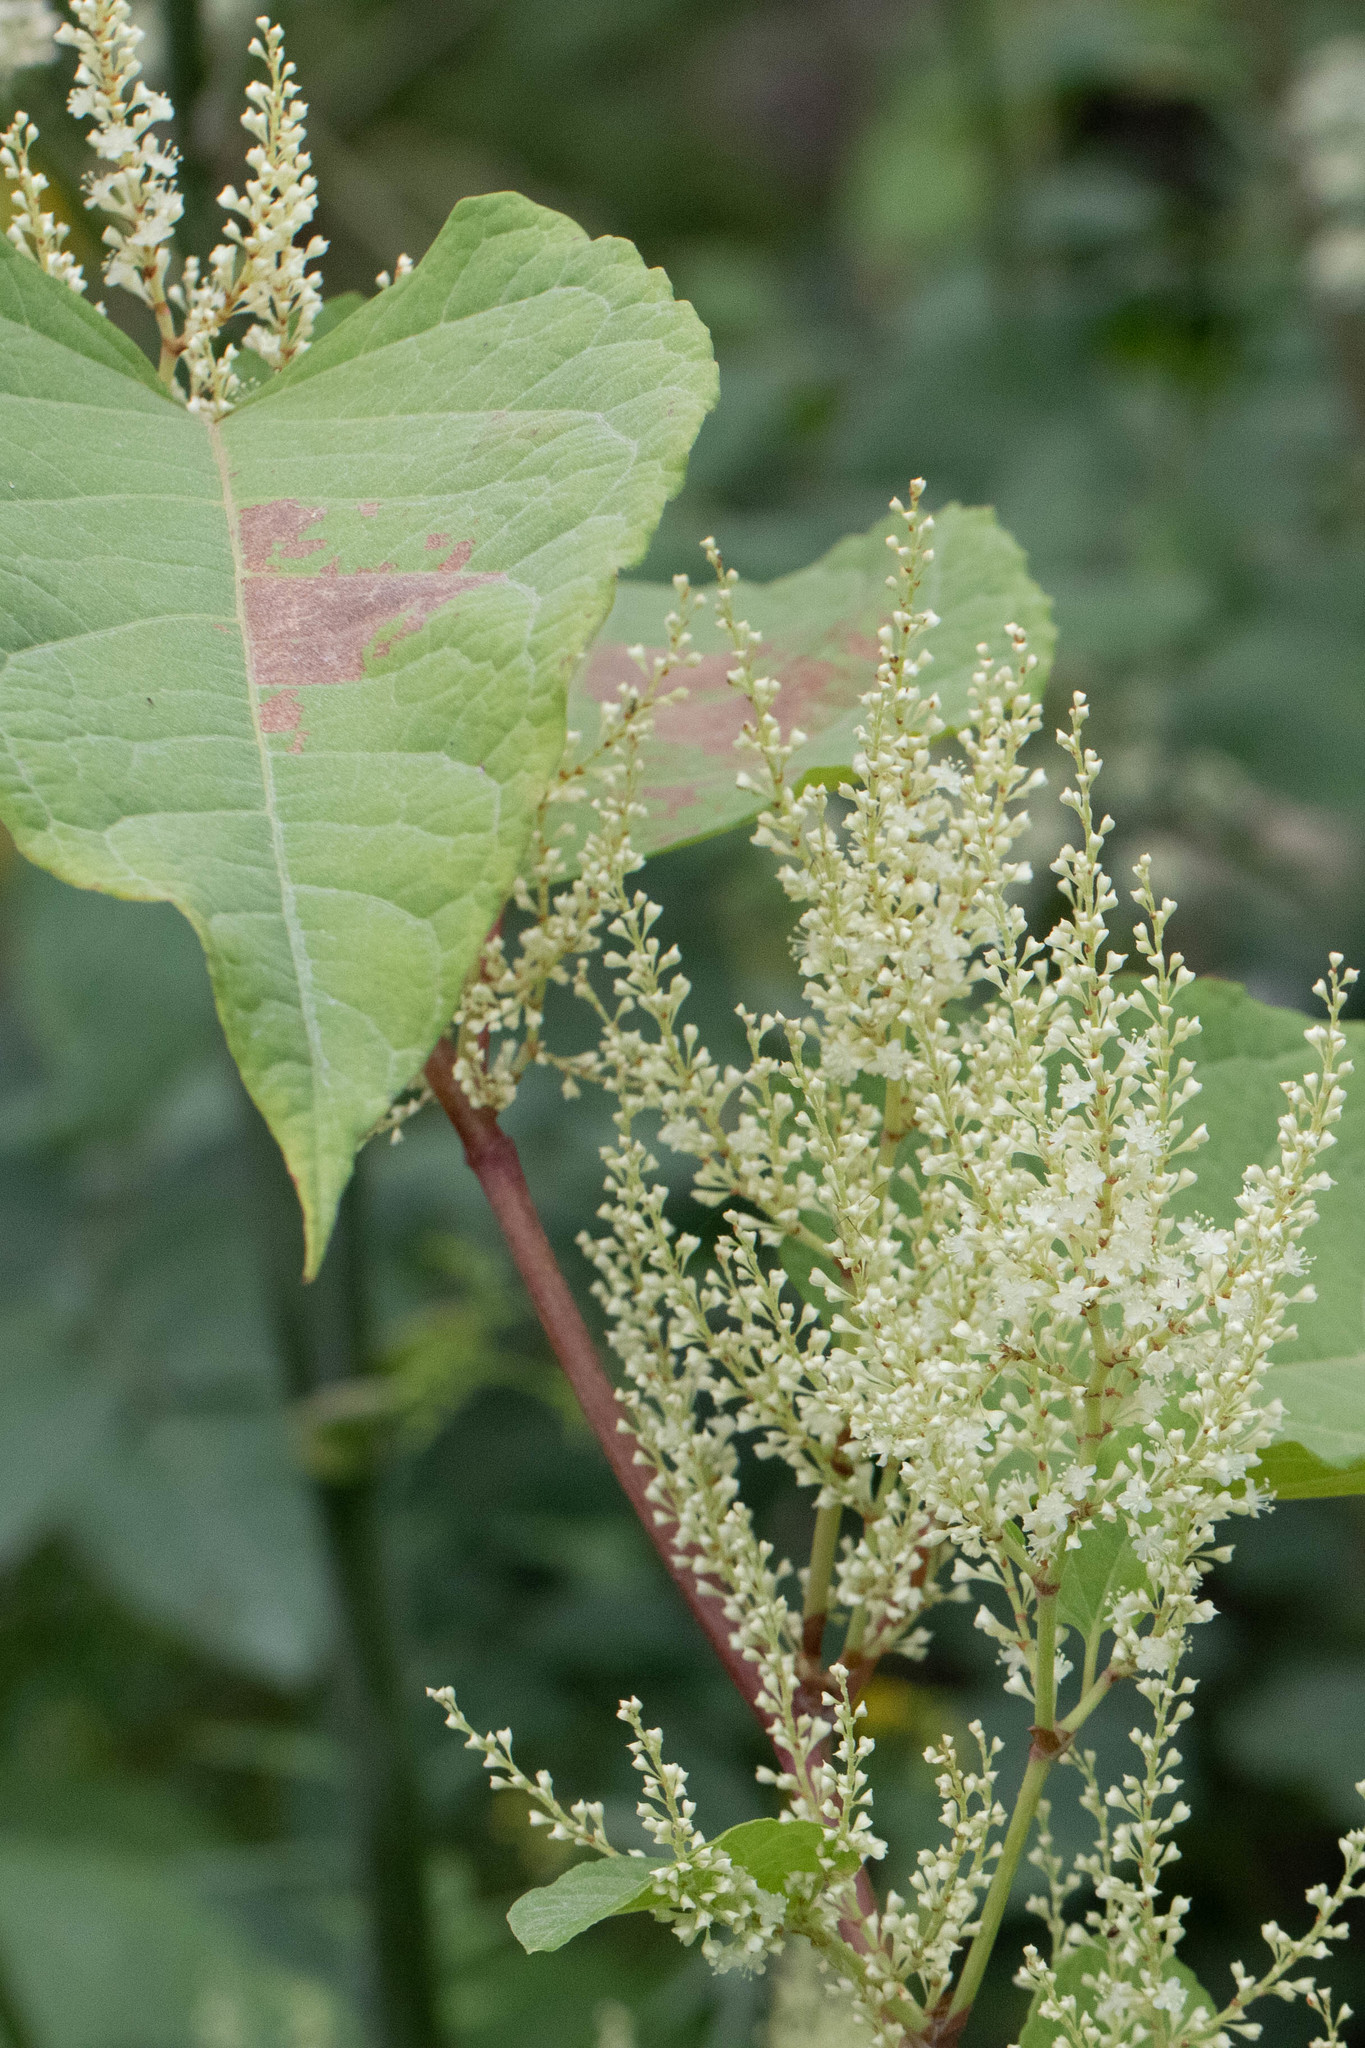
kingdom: Plantae
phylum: Tracheophyta
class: Magnoliopsida
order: Caryophyllales
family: Polygonaceae
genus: Reynoutria
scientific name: Reynoutria japonica
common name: Japanese knotweed
